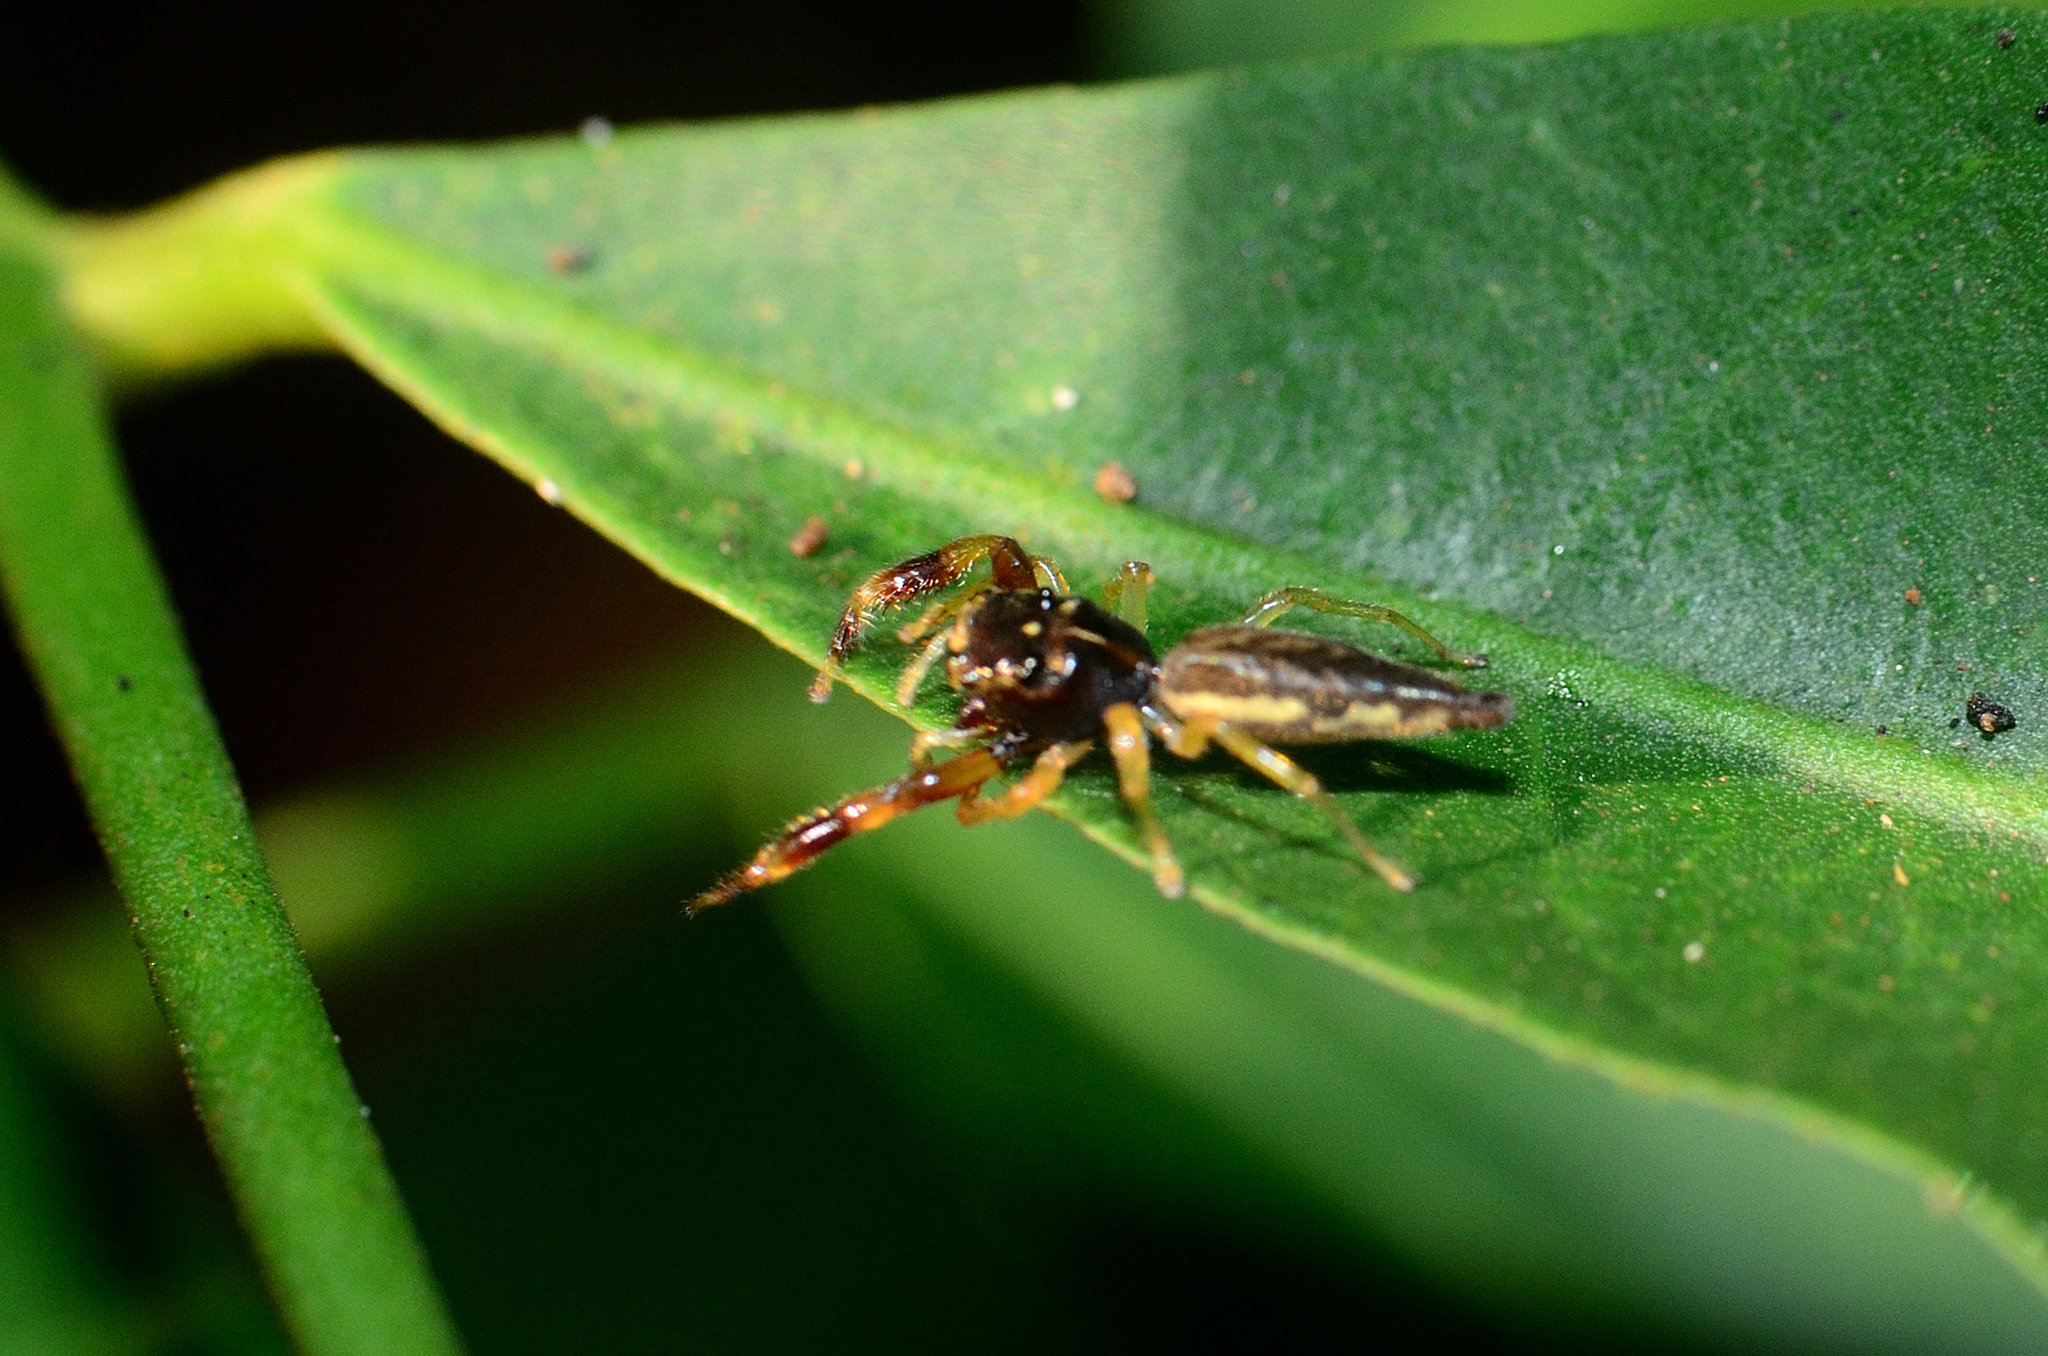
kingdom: Animalia
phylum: Arthropoda
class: Arachnida
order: Araneae
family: Salticidae
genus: Indopadilla
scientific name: Indopadilla insularis
